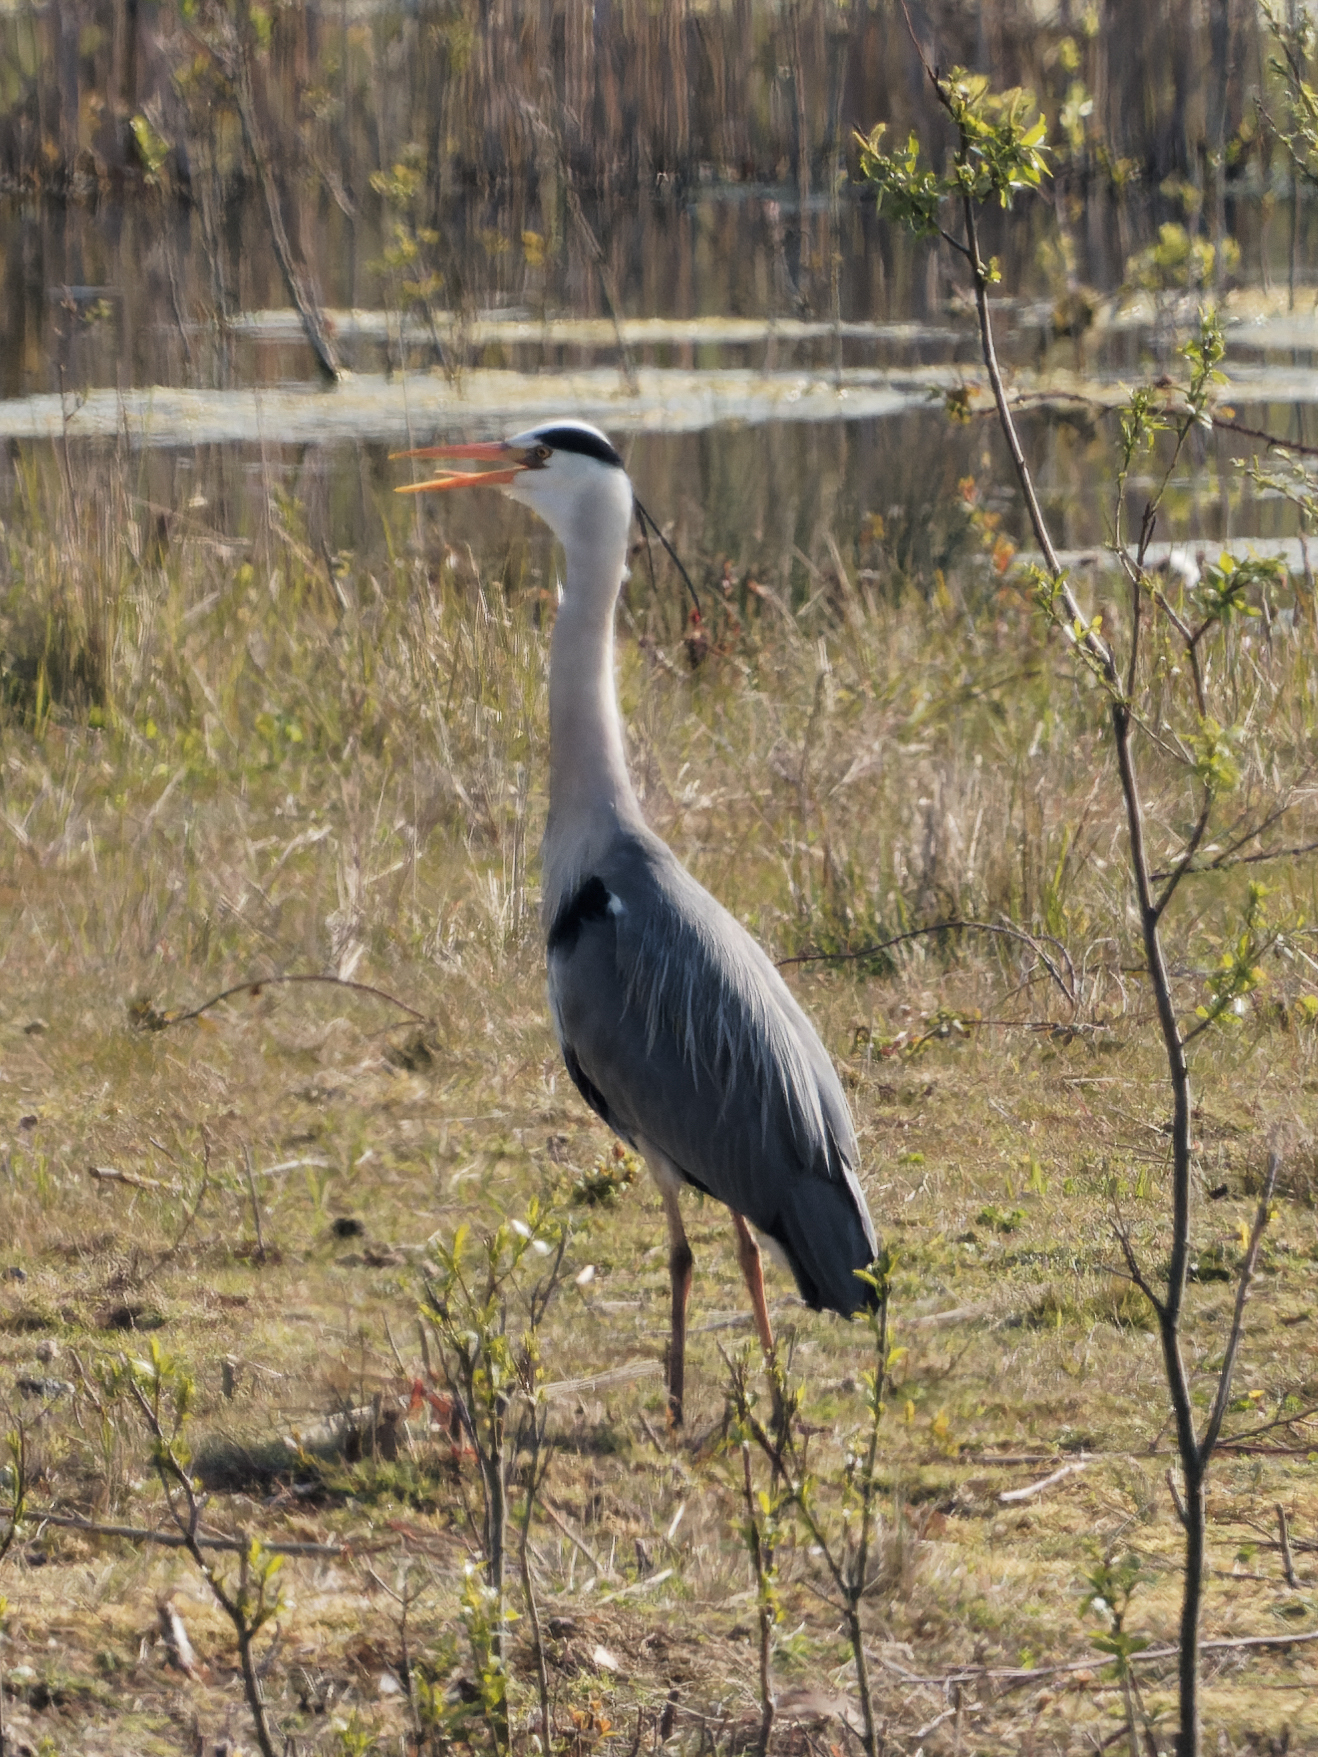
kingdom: Animalia
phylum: Chordata
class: Aves
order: Pelecaniformes
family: Ardeidae
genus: Ardea
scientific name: Ardea cinerea
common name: Grey heron
